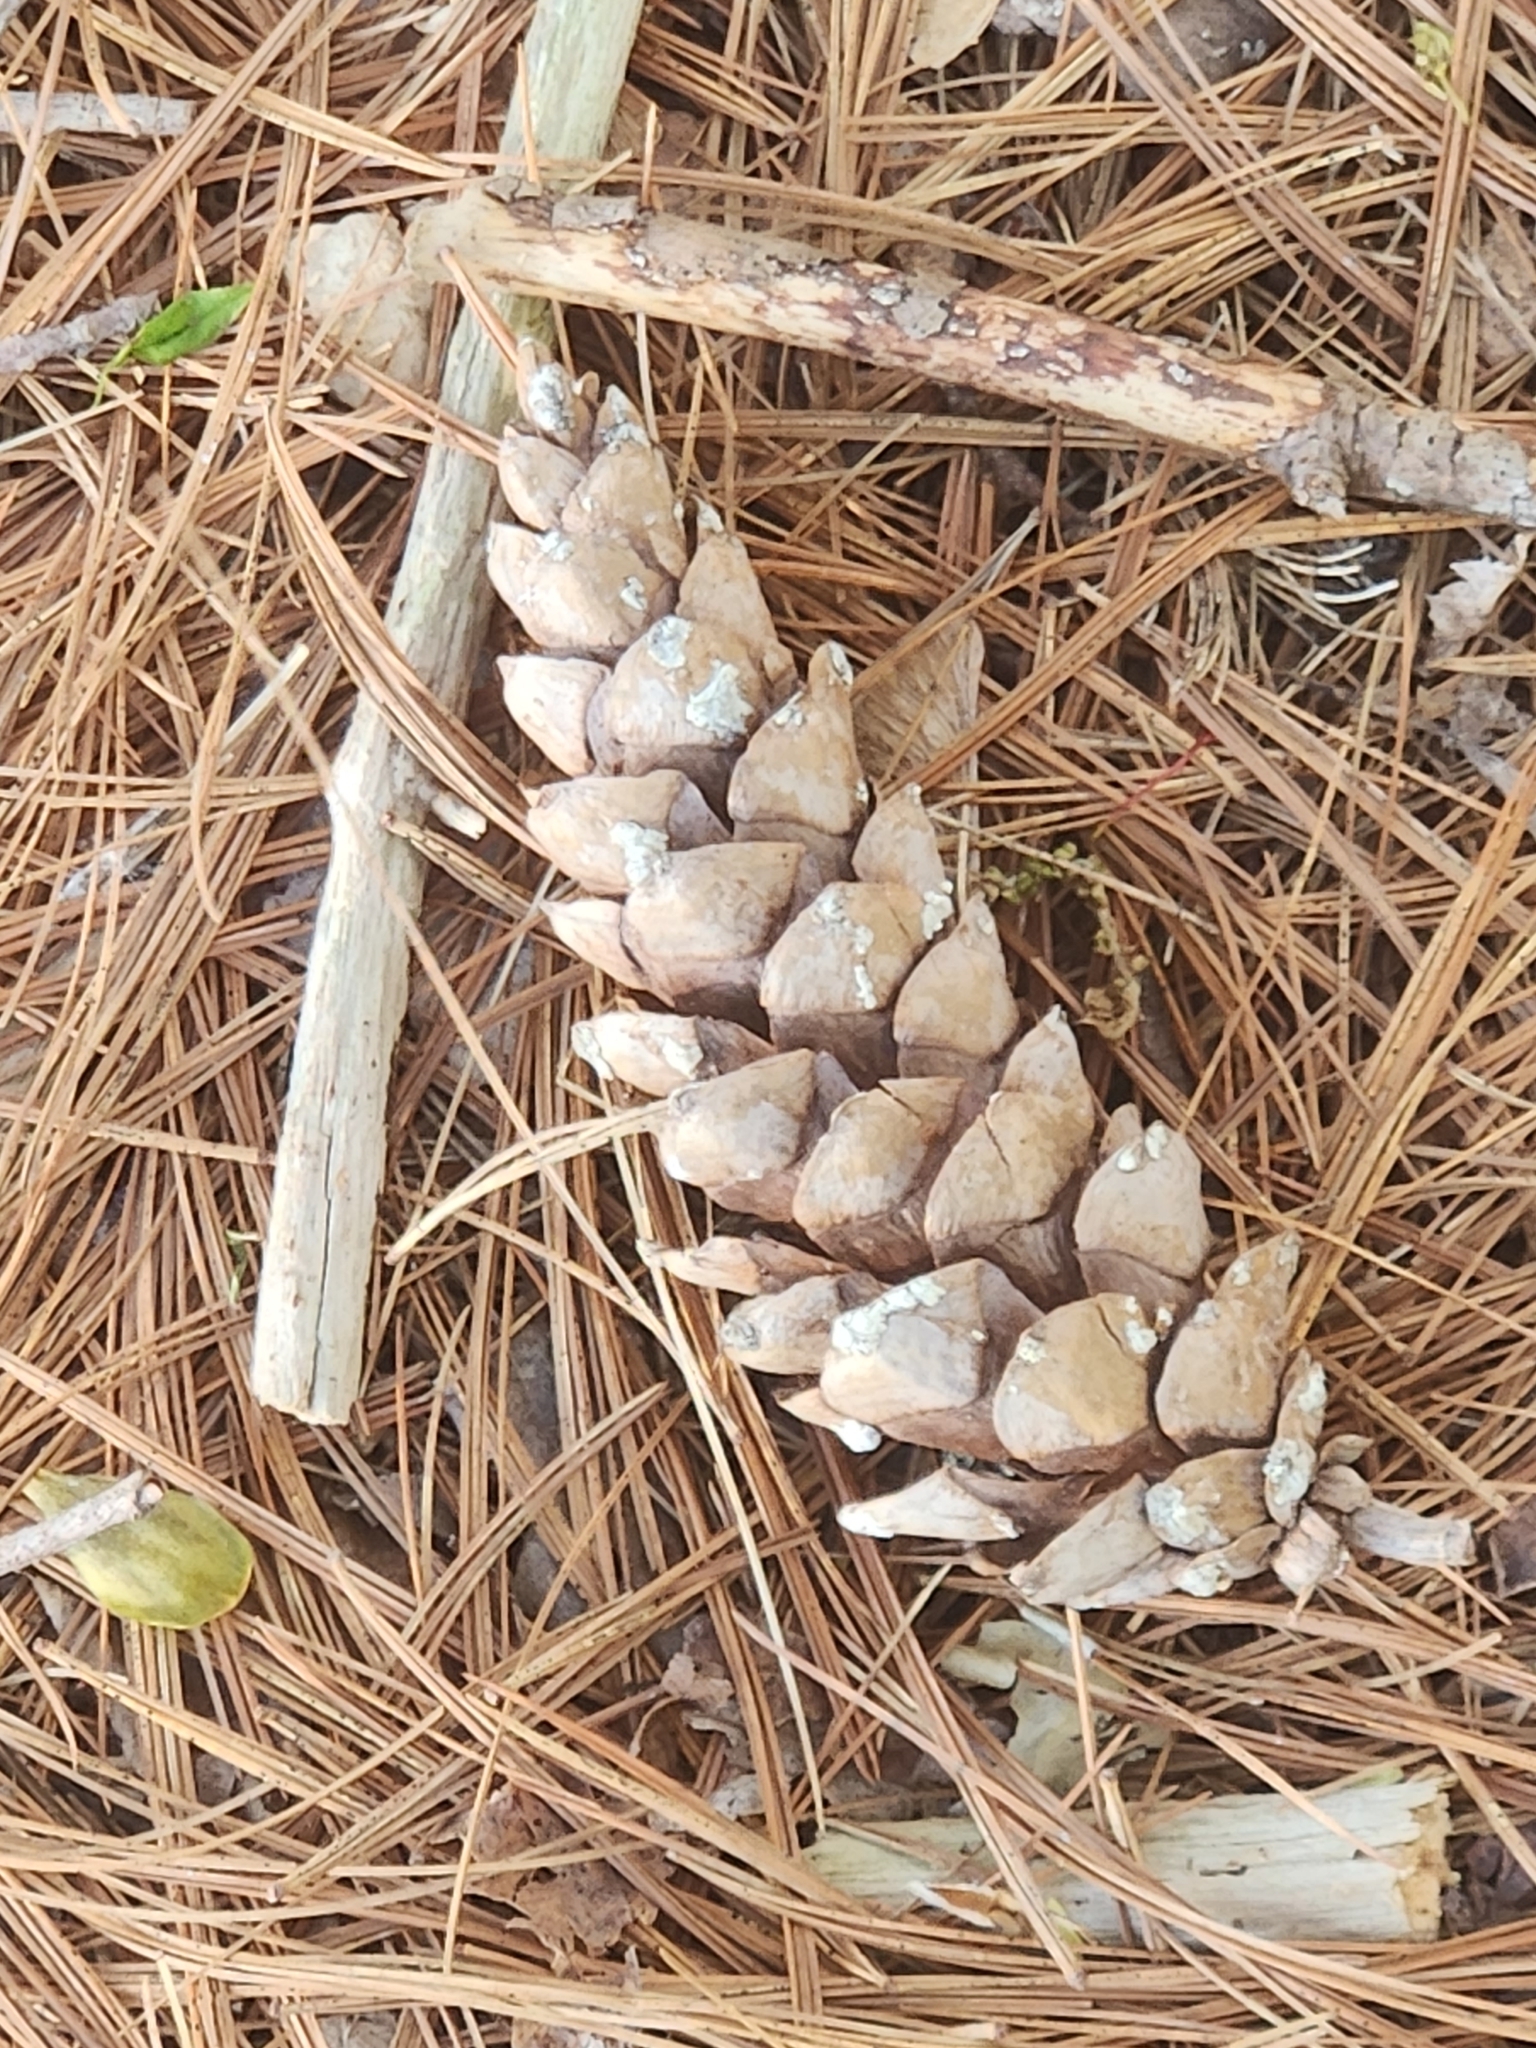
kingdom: Plantae
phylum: Tracheophyta
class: Pinopsida
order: Pinales
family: Pinaceae
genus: Pinus
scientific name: Pinus strobus
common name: Weymouth pine
